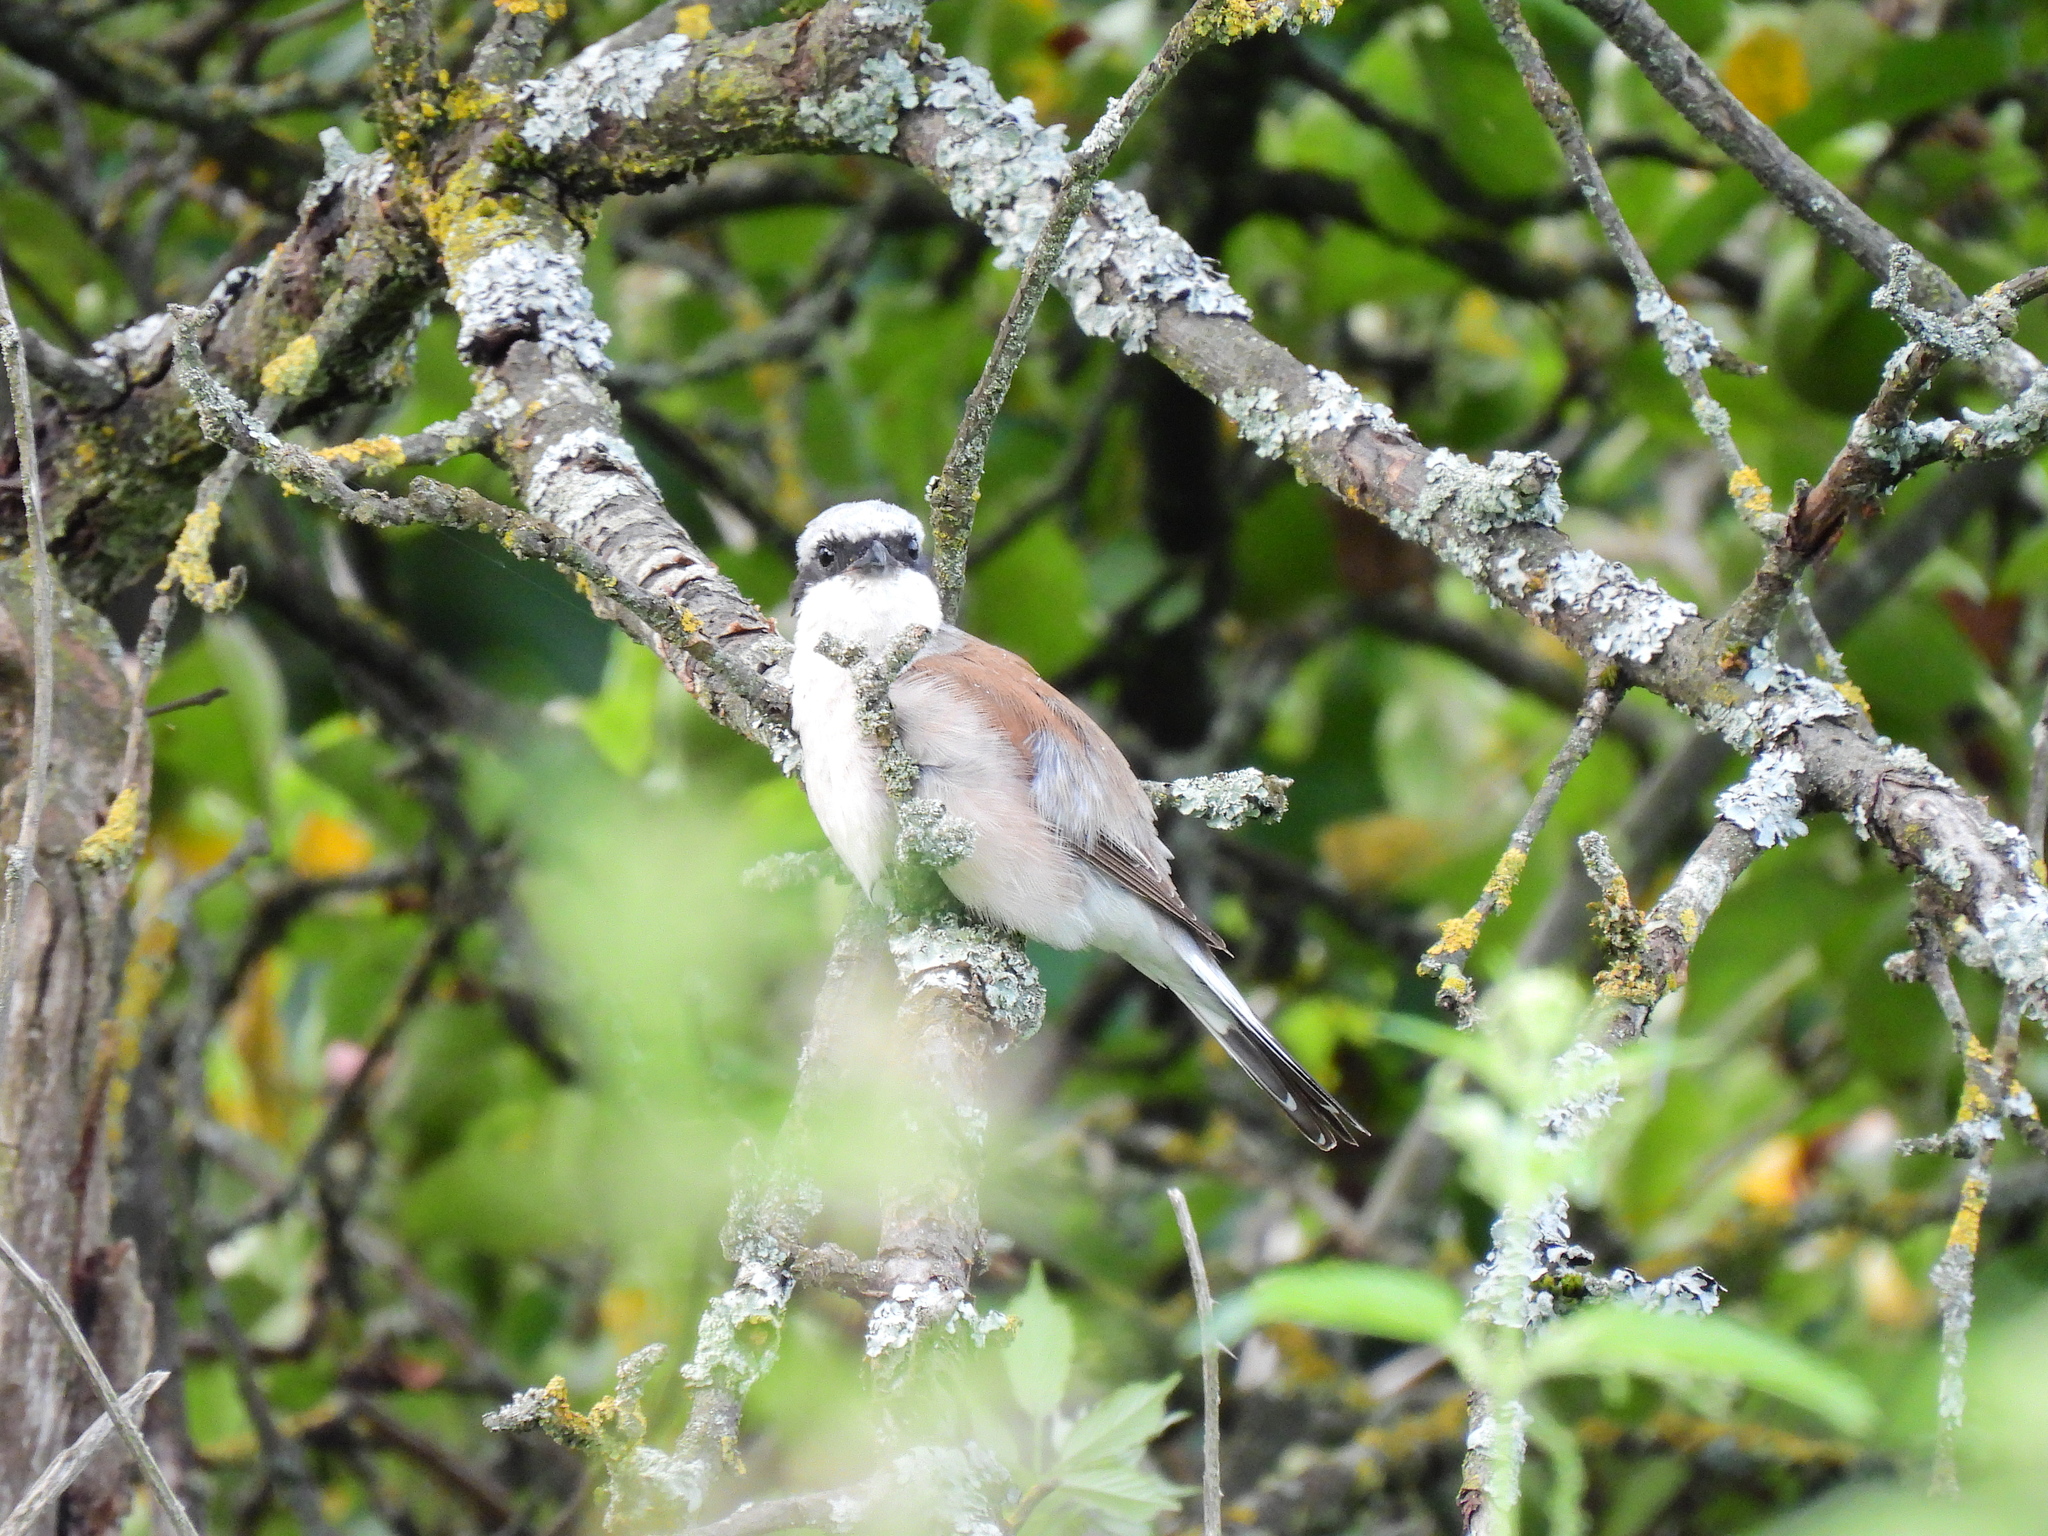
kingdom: Animalia
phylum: Chordata
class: Aves
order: Passeriformes
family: Laniidae
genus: Lanius
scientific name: Lanius collurio
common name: Red-backed shrike
